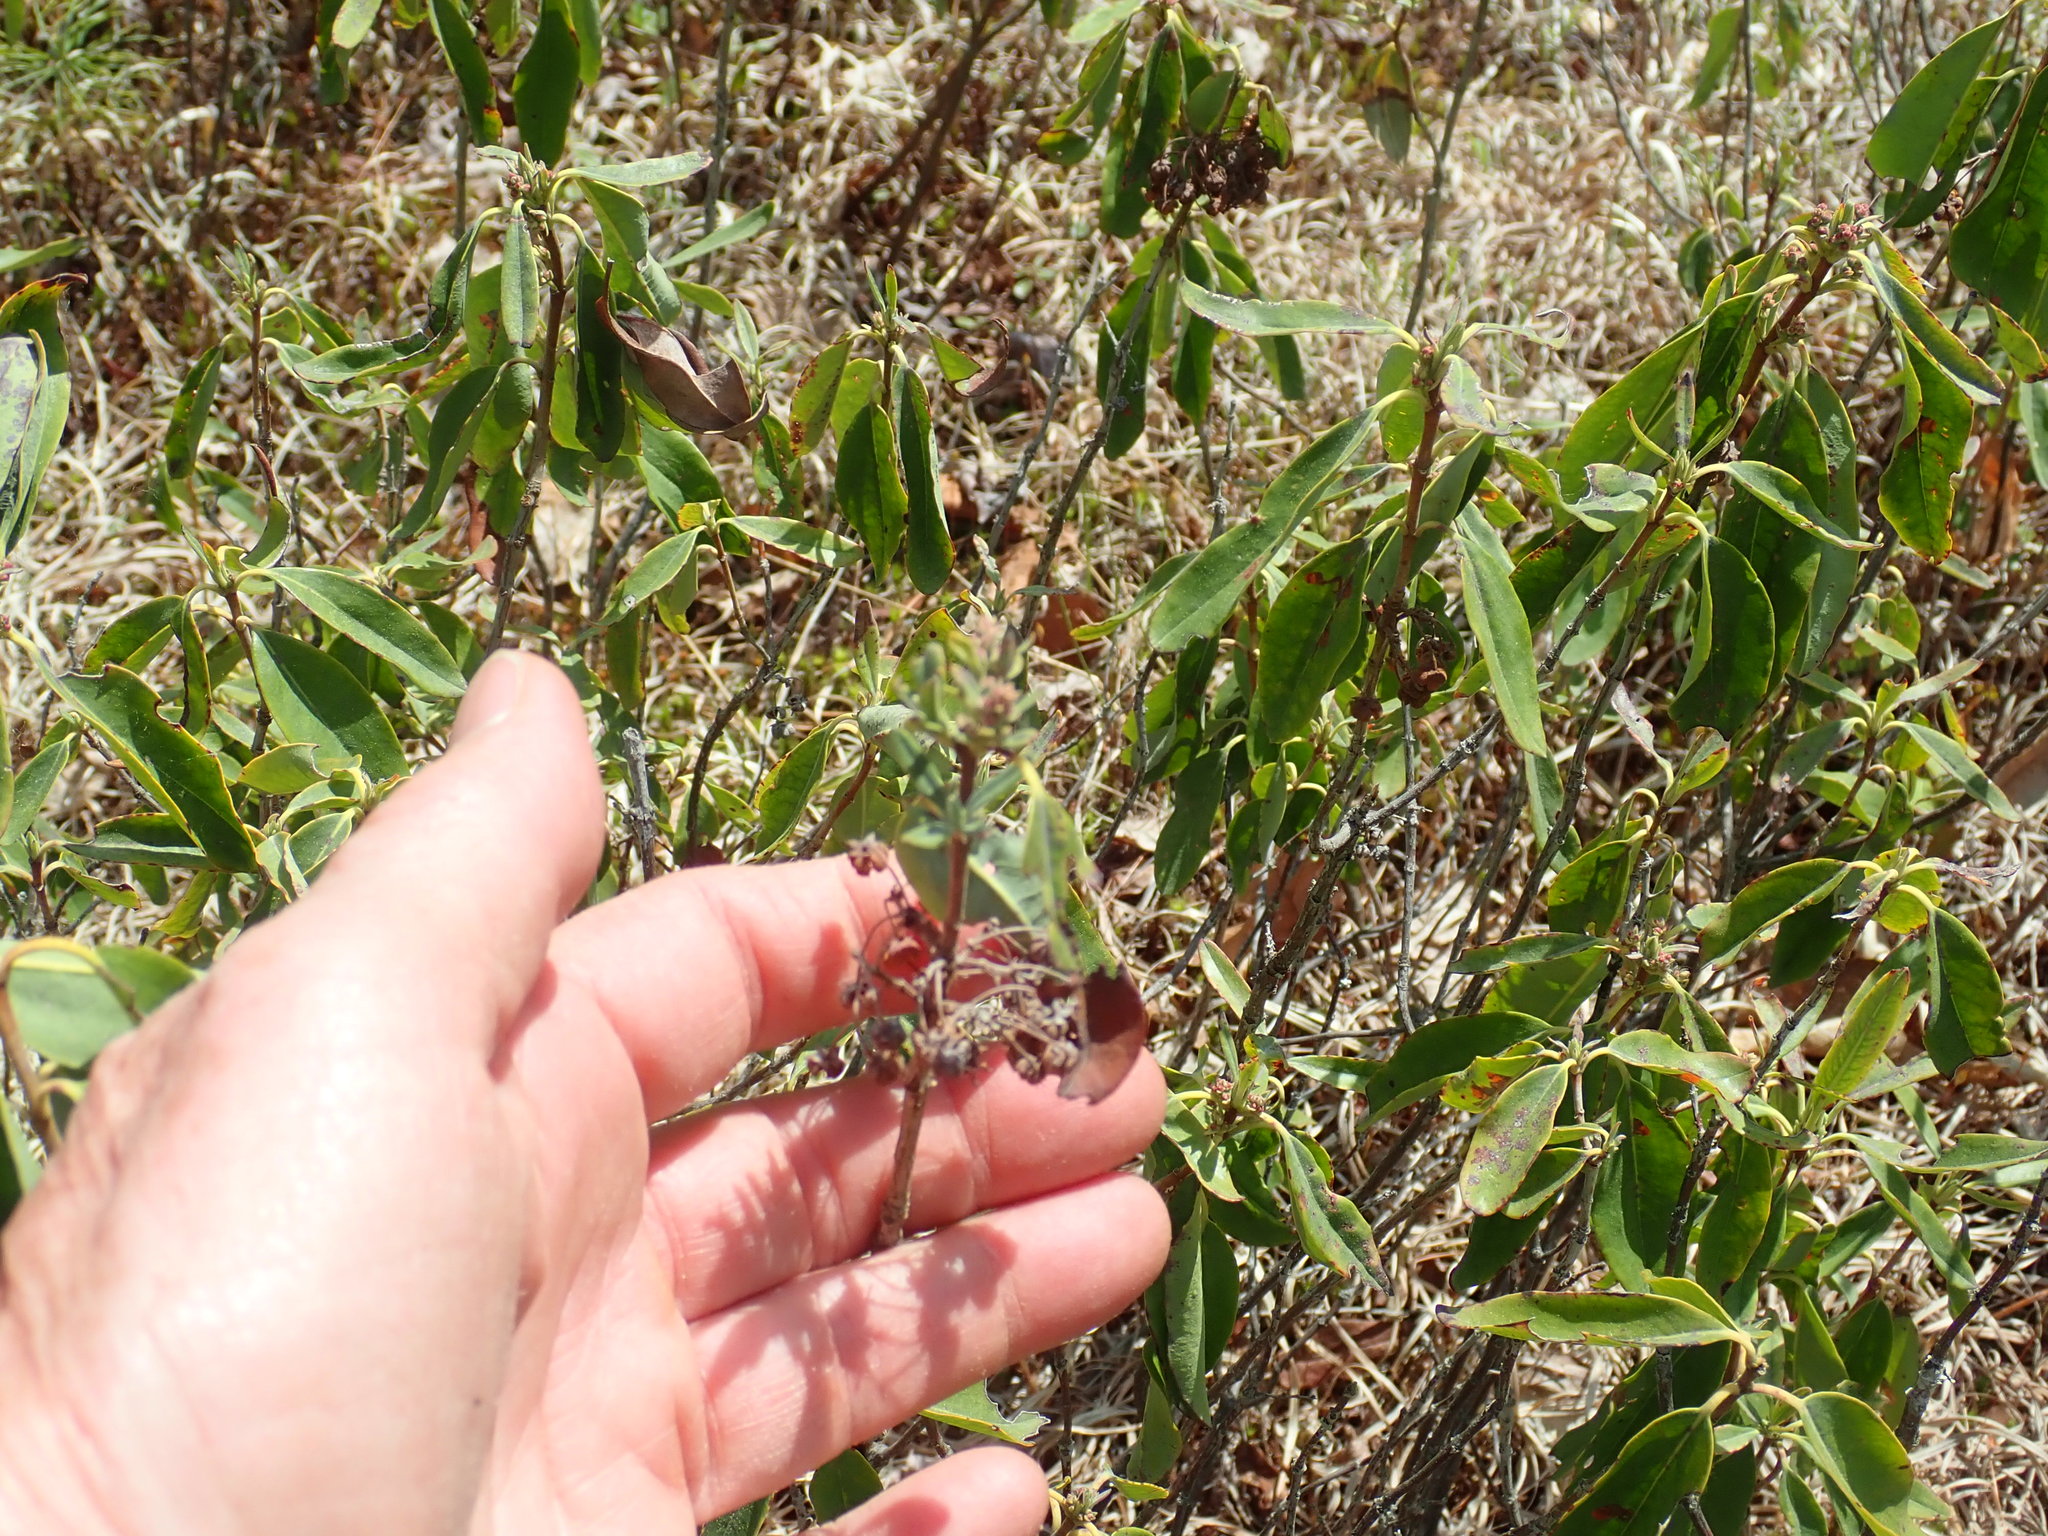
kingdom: Plantae
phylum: Tracheophyta
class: Magnoliopsida
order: Ericales
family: Ericaceae
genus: Kalmia
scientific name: Kalmia angustifolia
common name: Sheep-laurel
